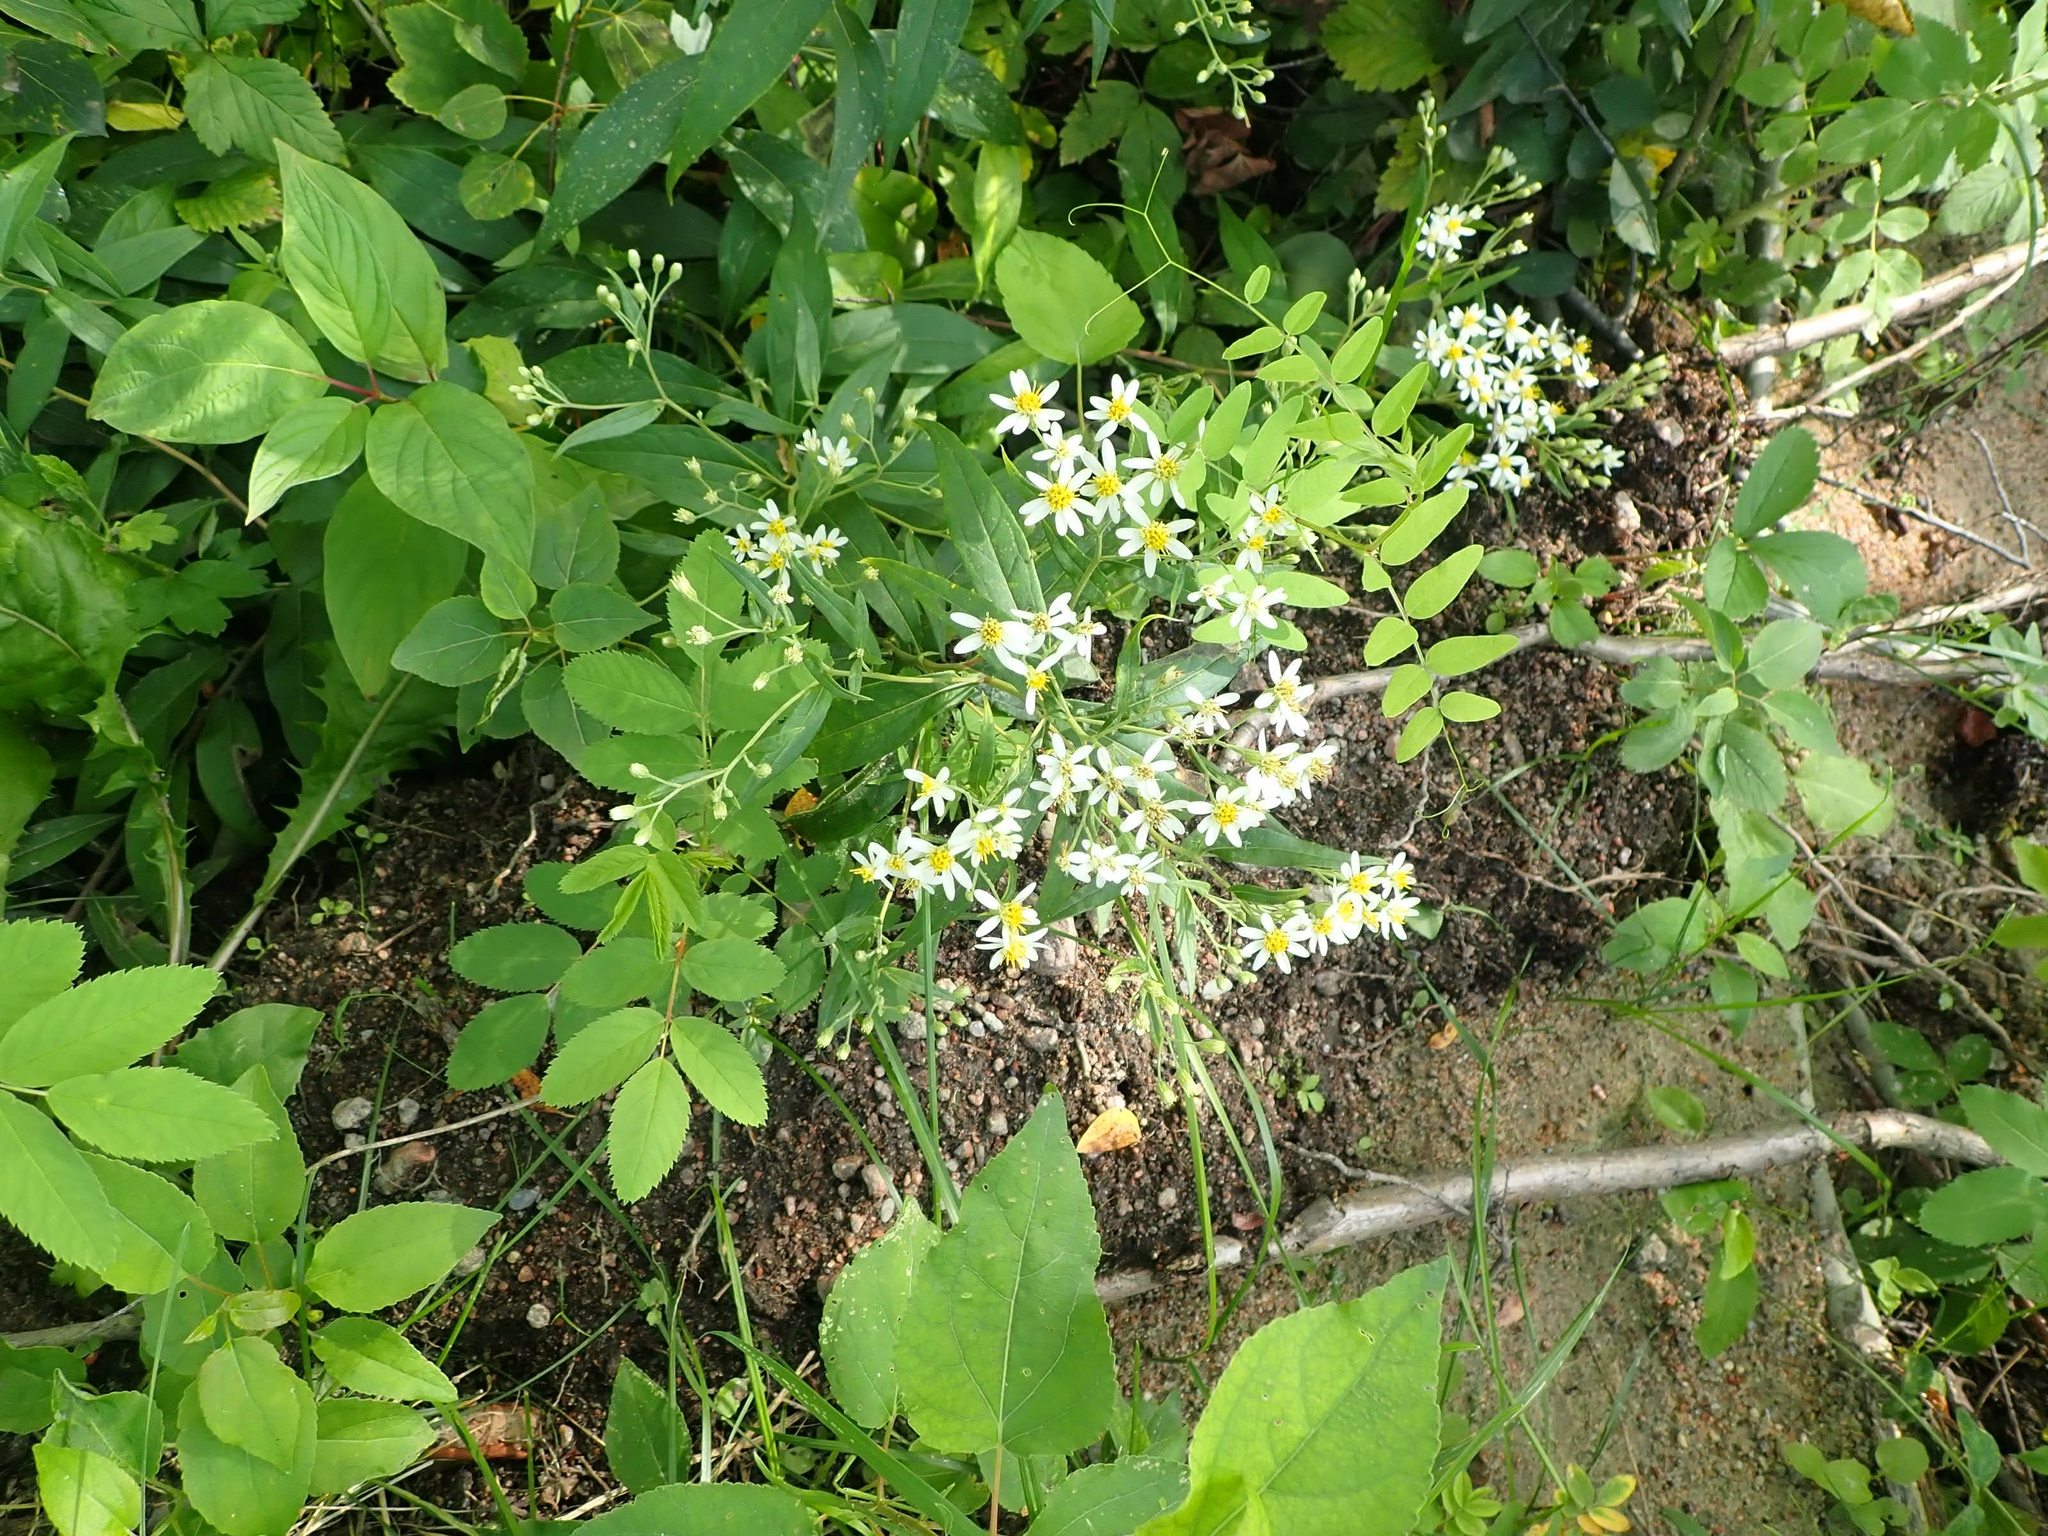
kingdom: Plantae
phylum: Tracheophyta
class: Magnoliopsida
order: Asterales
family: Asteraceae
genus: Doellingeria
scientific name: Doellingeria umbellata
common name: Flat-top white aster
